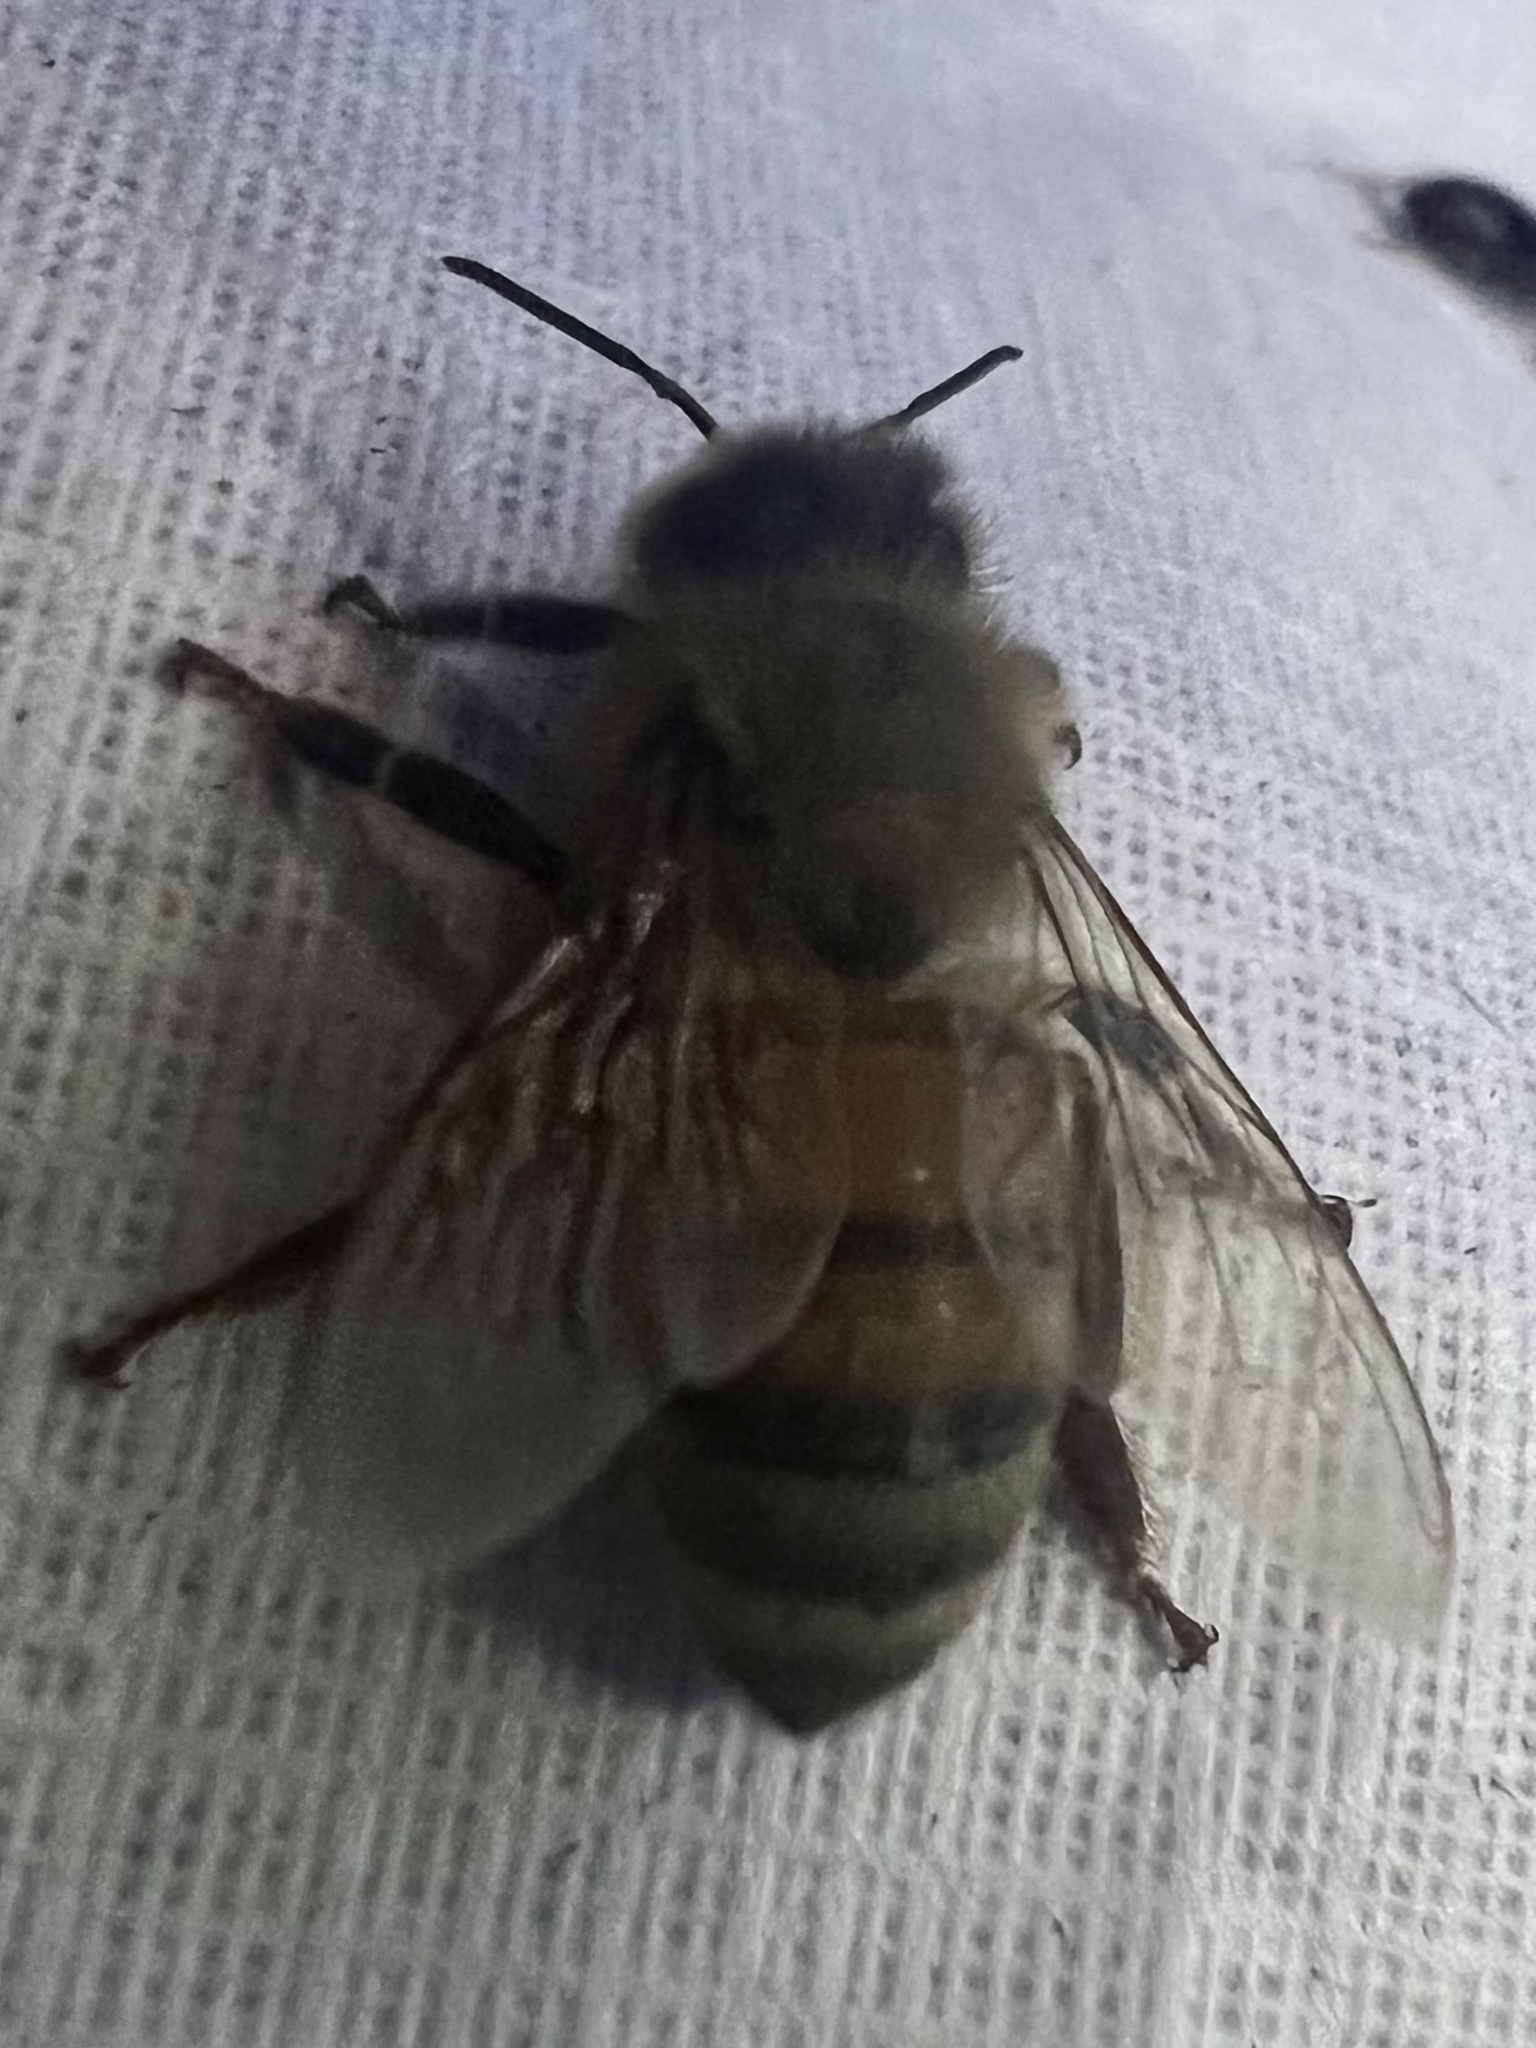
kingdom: Animalia
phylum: Arthropoda
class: Insecta
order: Hymenoptera
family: Apidae
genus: Apis
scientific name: Apis mellifera
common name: Honey bee
